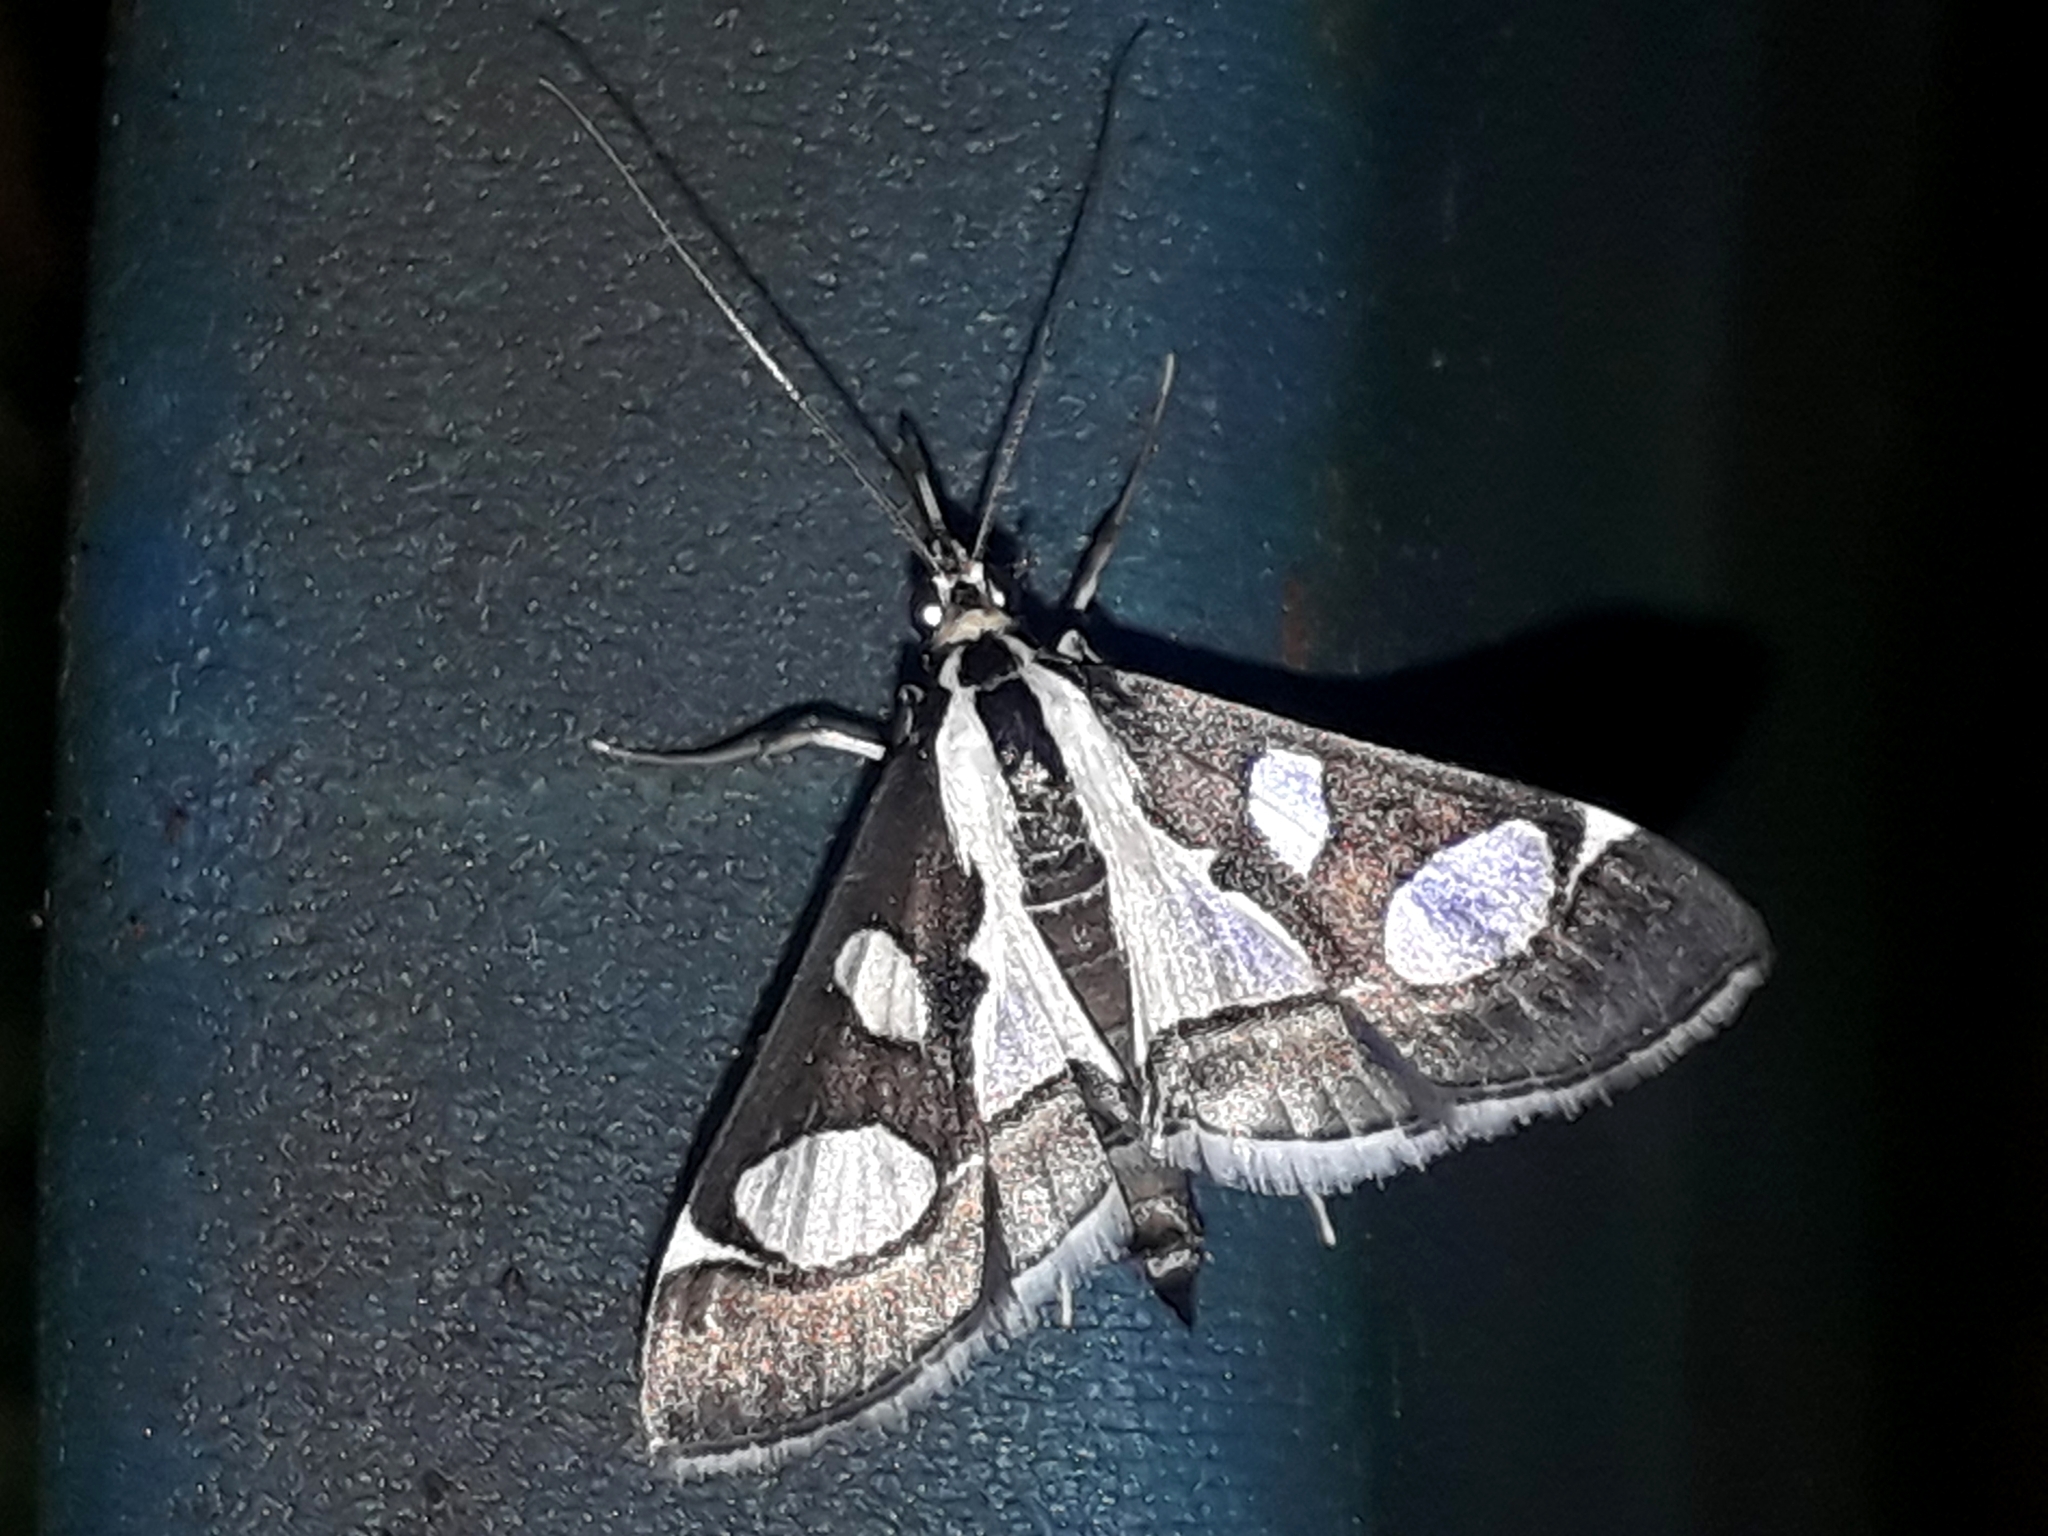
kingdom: Animalia
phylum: Arthropoda
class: Insecta
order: Lepidoptera
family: Crambidae
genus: Glyphodes
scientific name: Glyphodes bicolor
